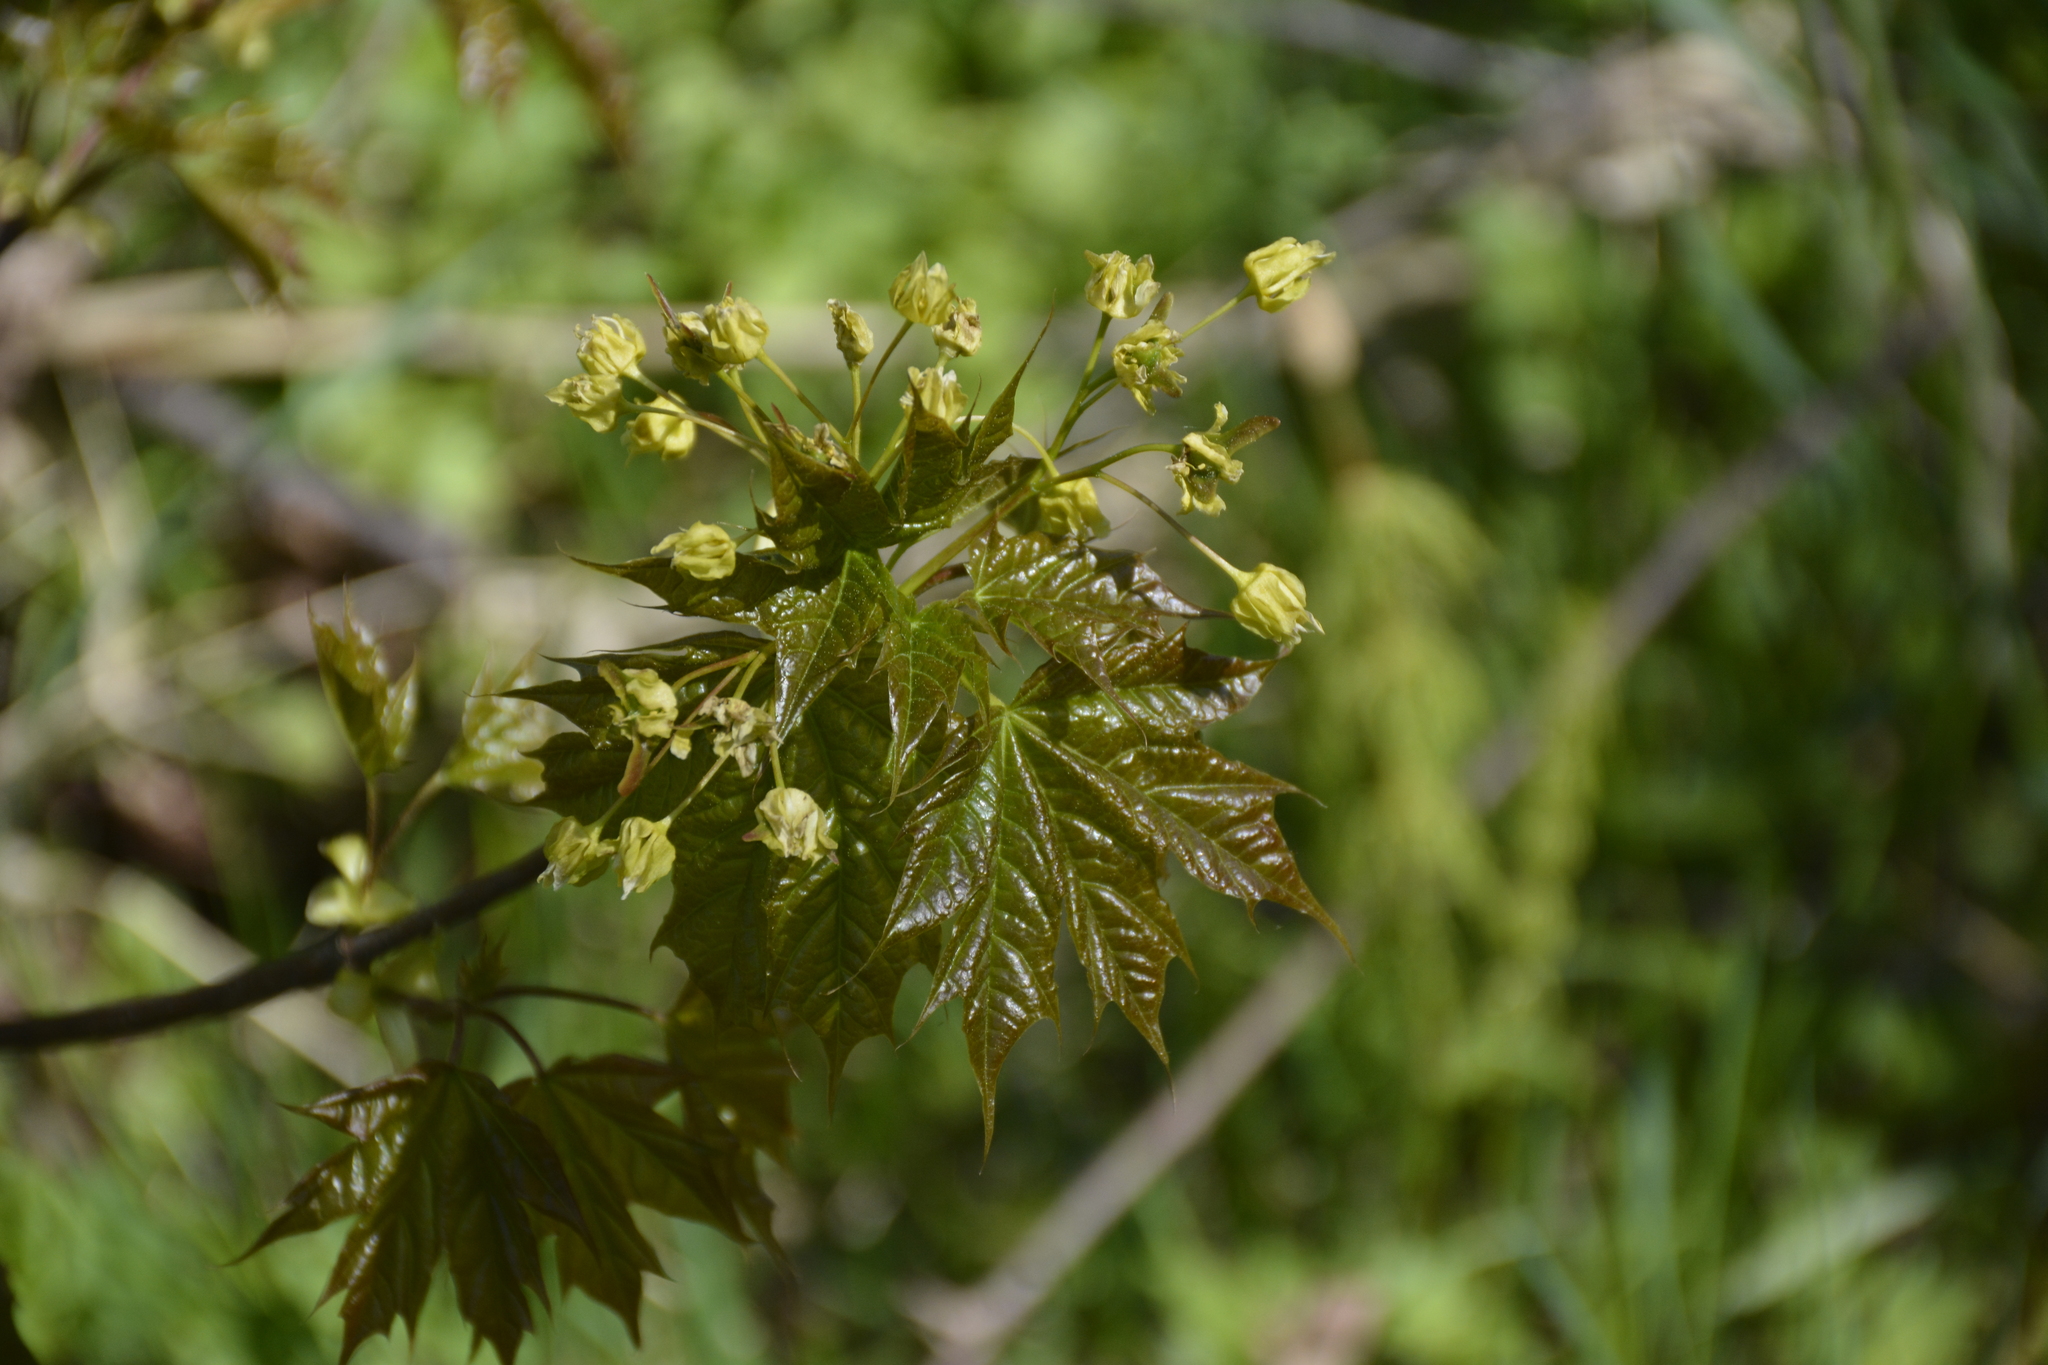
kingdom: Plantae
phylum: Tracheophyta
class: Magnoliopsida
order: Sapindales
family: Sapindaceae
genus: Acer
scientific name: Acer platanoides
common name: Norway maple
